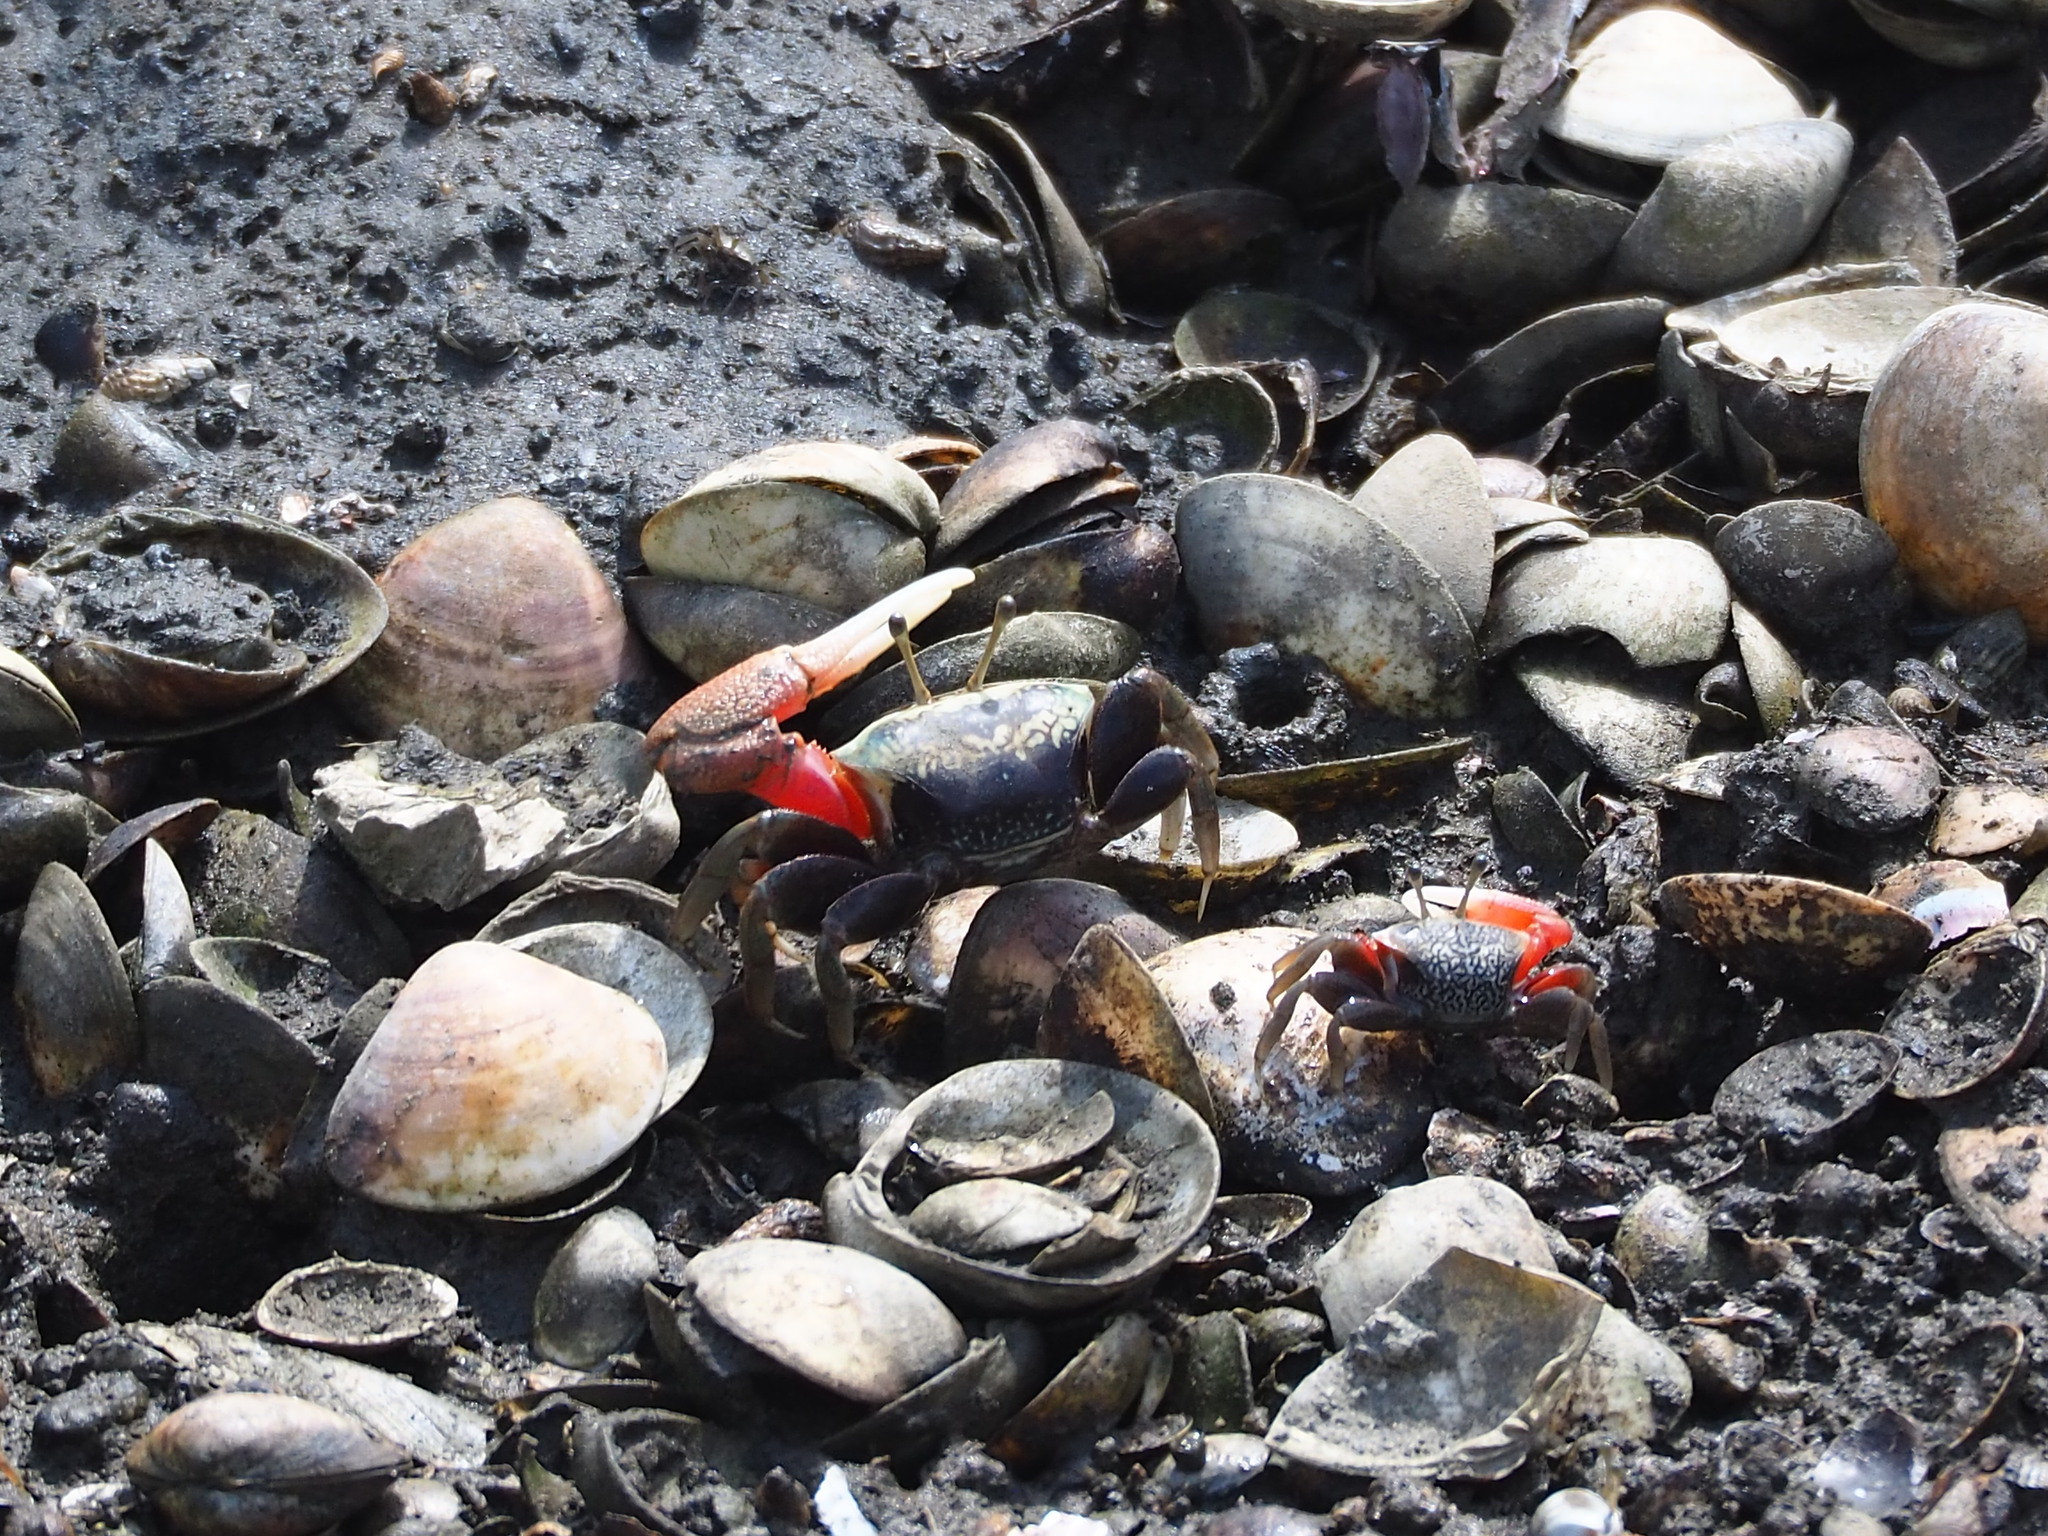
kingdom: Animalia
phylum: Arthropoda
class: Malacostraca
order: Decapoda
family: Ocypodidae
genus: Tubuca
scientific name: Tubuca arcuata
